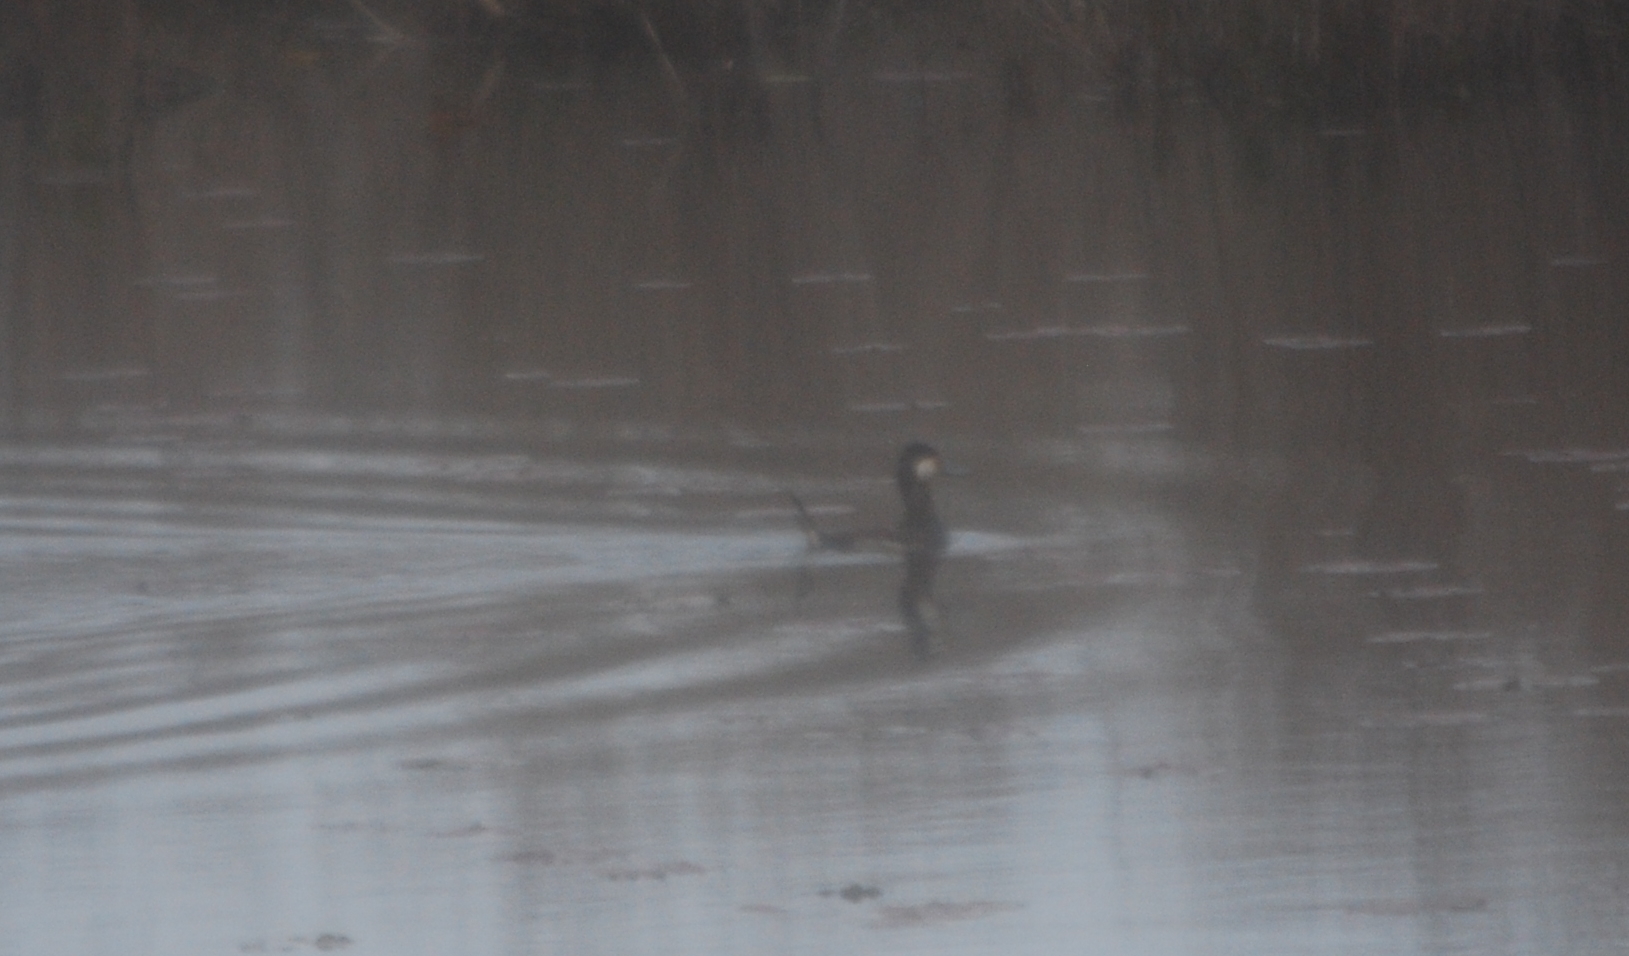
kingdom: Animalia
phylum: Chordata
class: Aves
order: Anseriformes
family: Anatidae
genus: Oxyura
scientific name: Oxyura jamaicensis
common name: Ruddy duck
